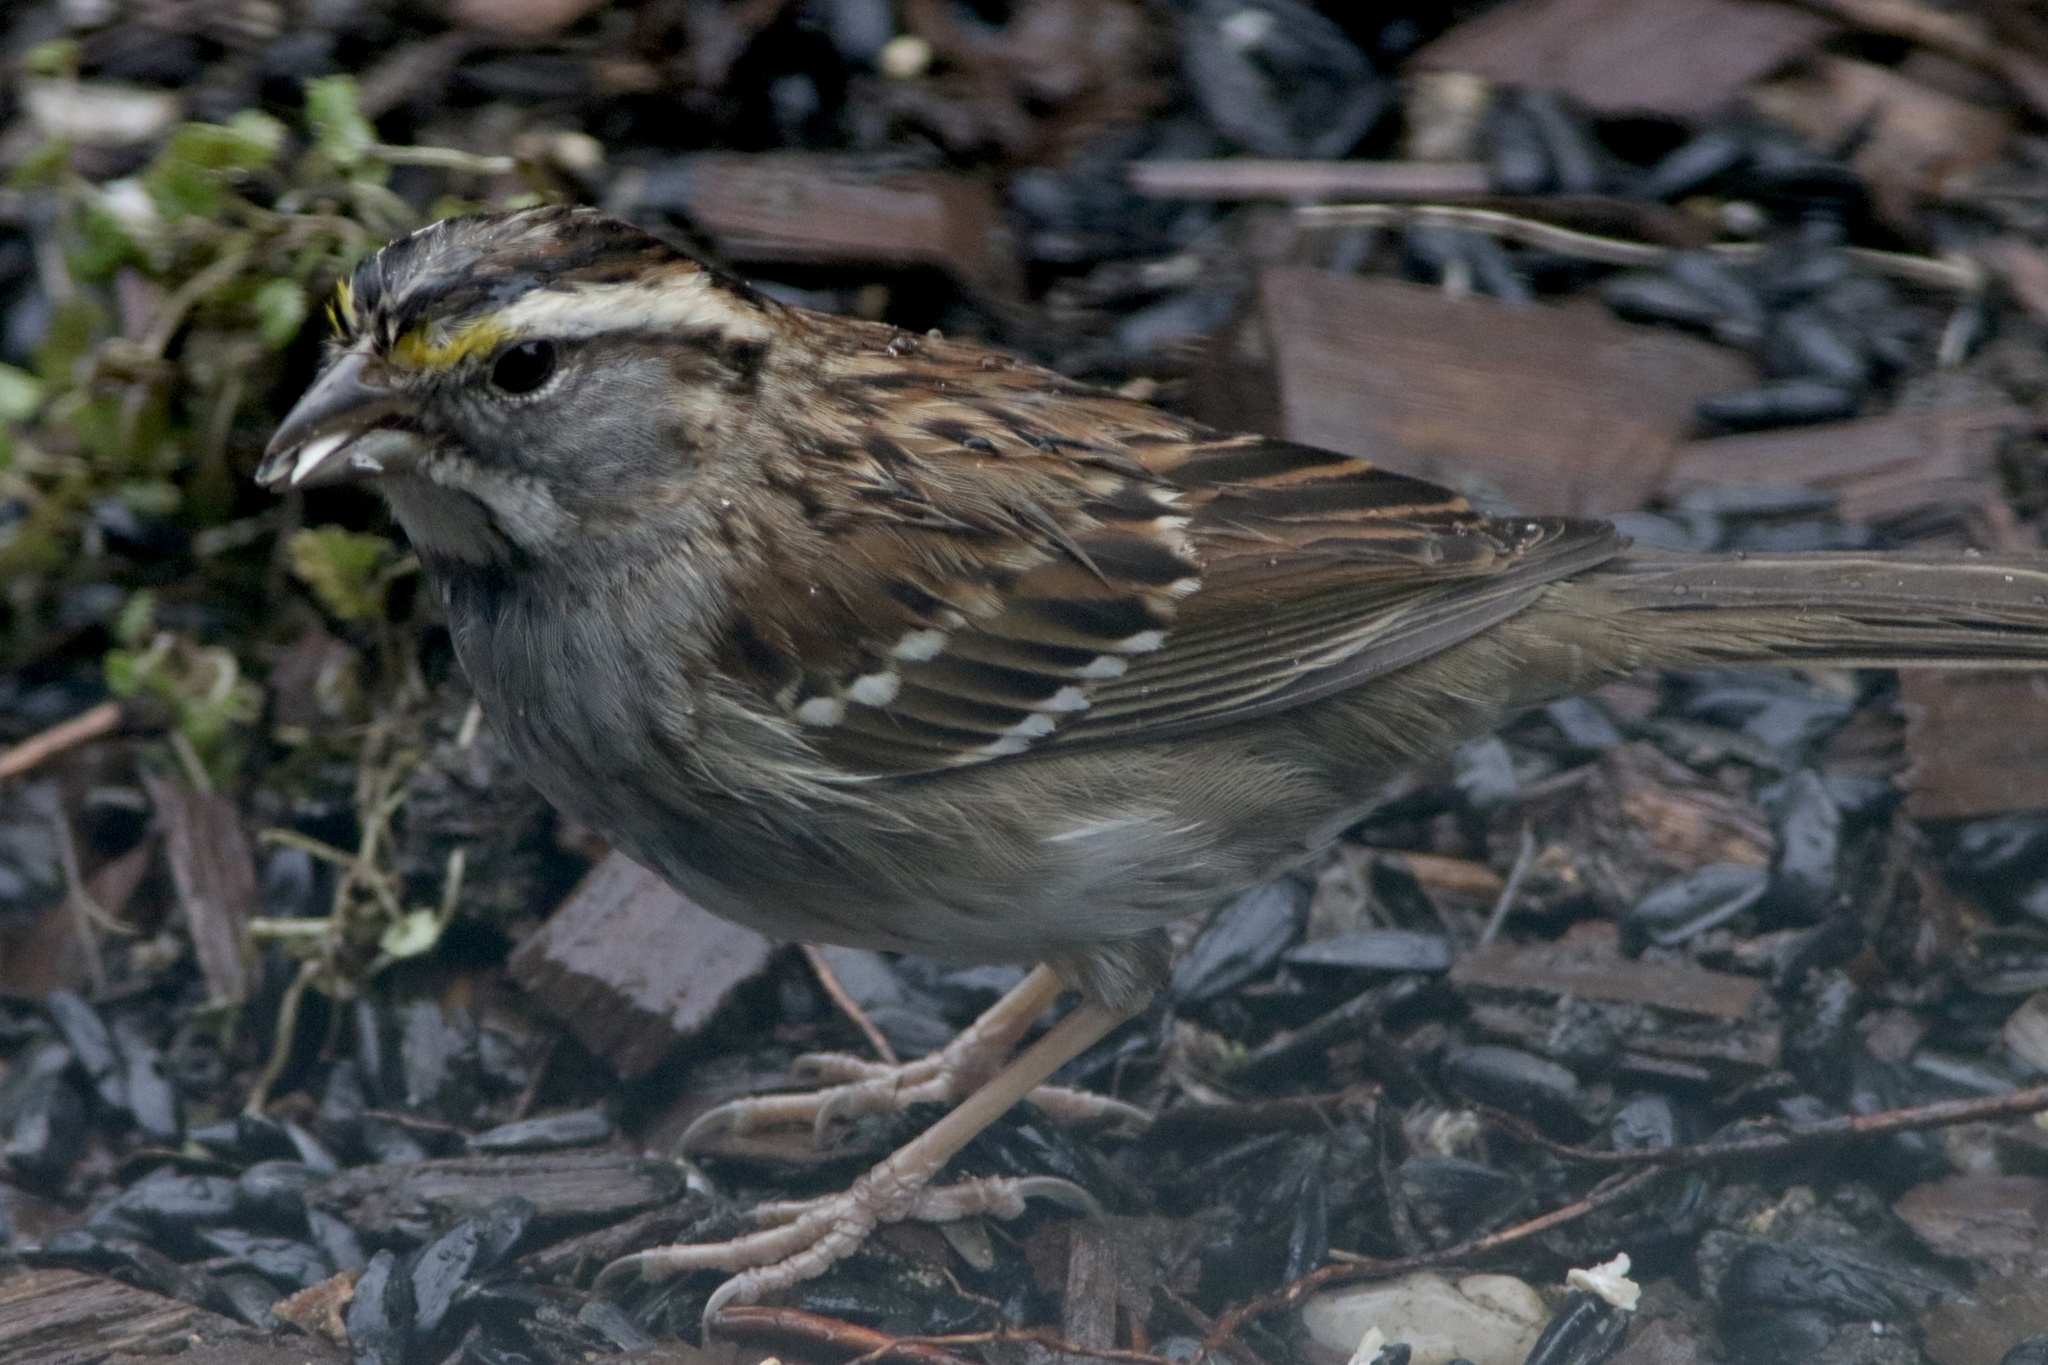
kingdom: Animalia
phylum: Chordata
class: Aves
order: Passeriformes
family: Passerellidae
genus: Zonotrichia
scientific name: Zonotrichia albicollis
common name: White-throated sparrow
